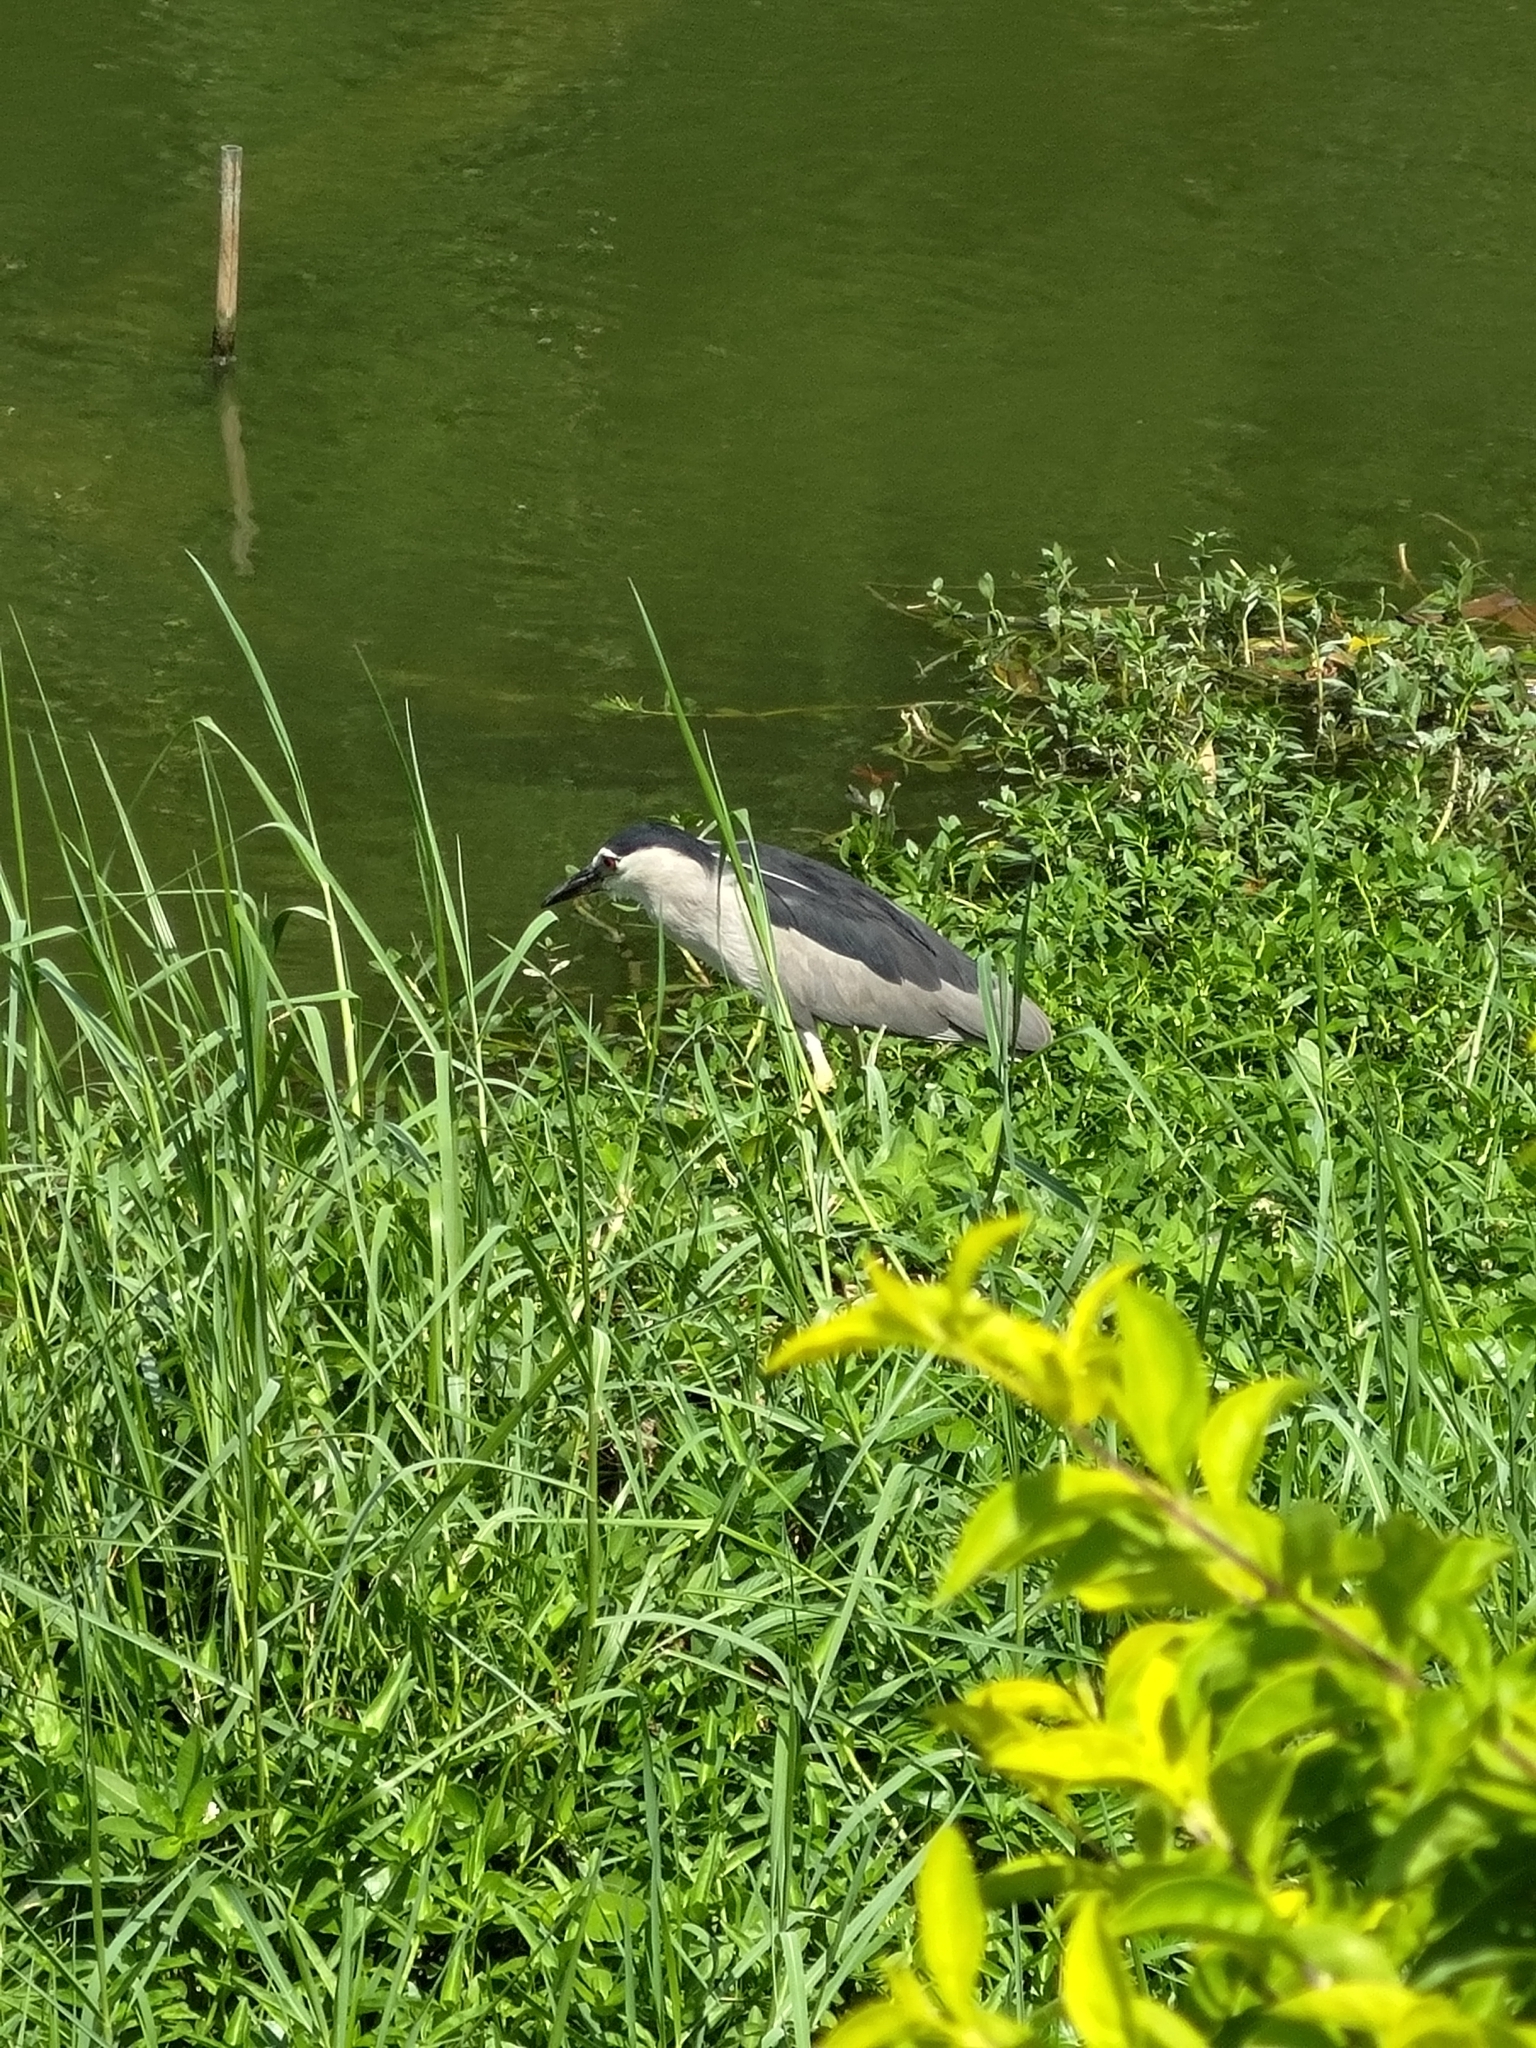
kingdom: Animalia
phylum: Chordata
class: Aves
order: Pelecaniformes
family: Ardeidae
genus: Nycticorax
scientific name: Nycticorax nycticorax
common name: Black-crowned night heron
